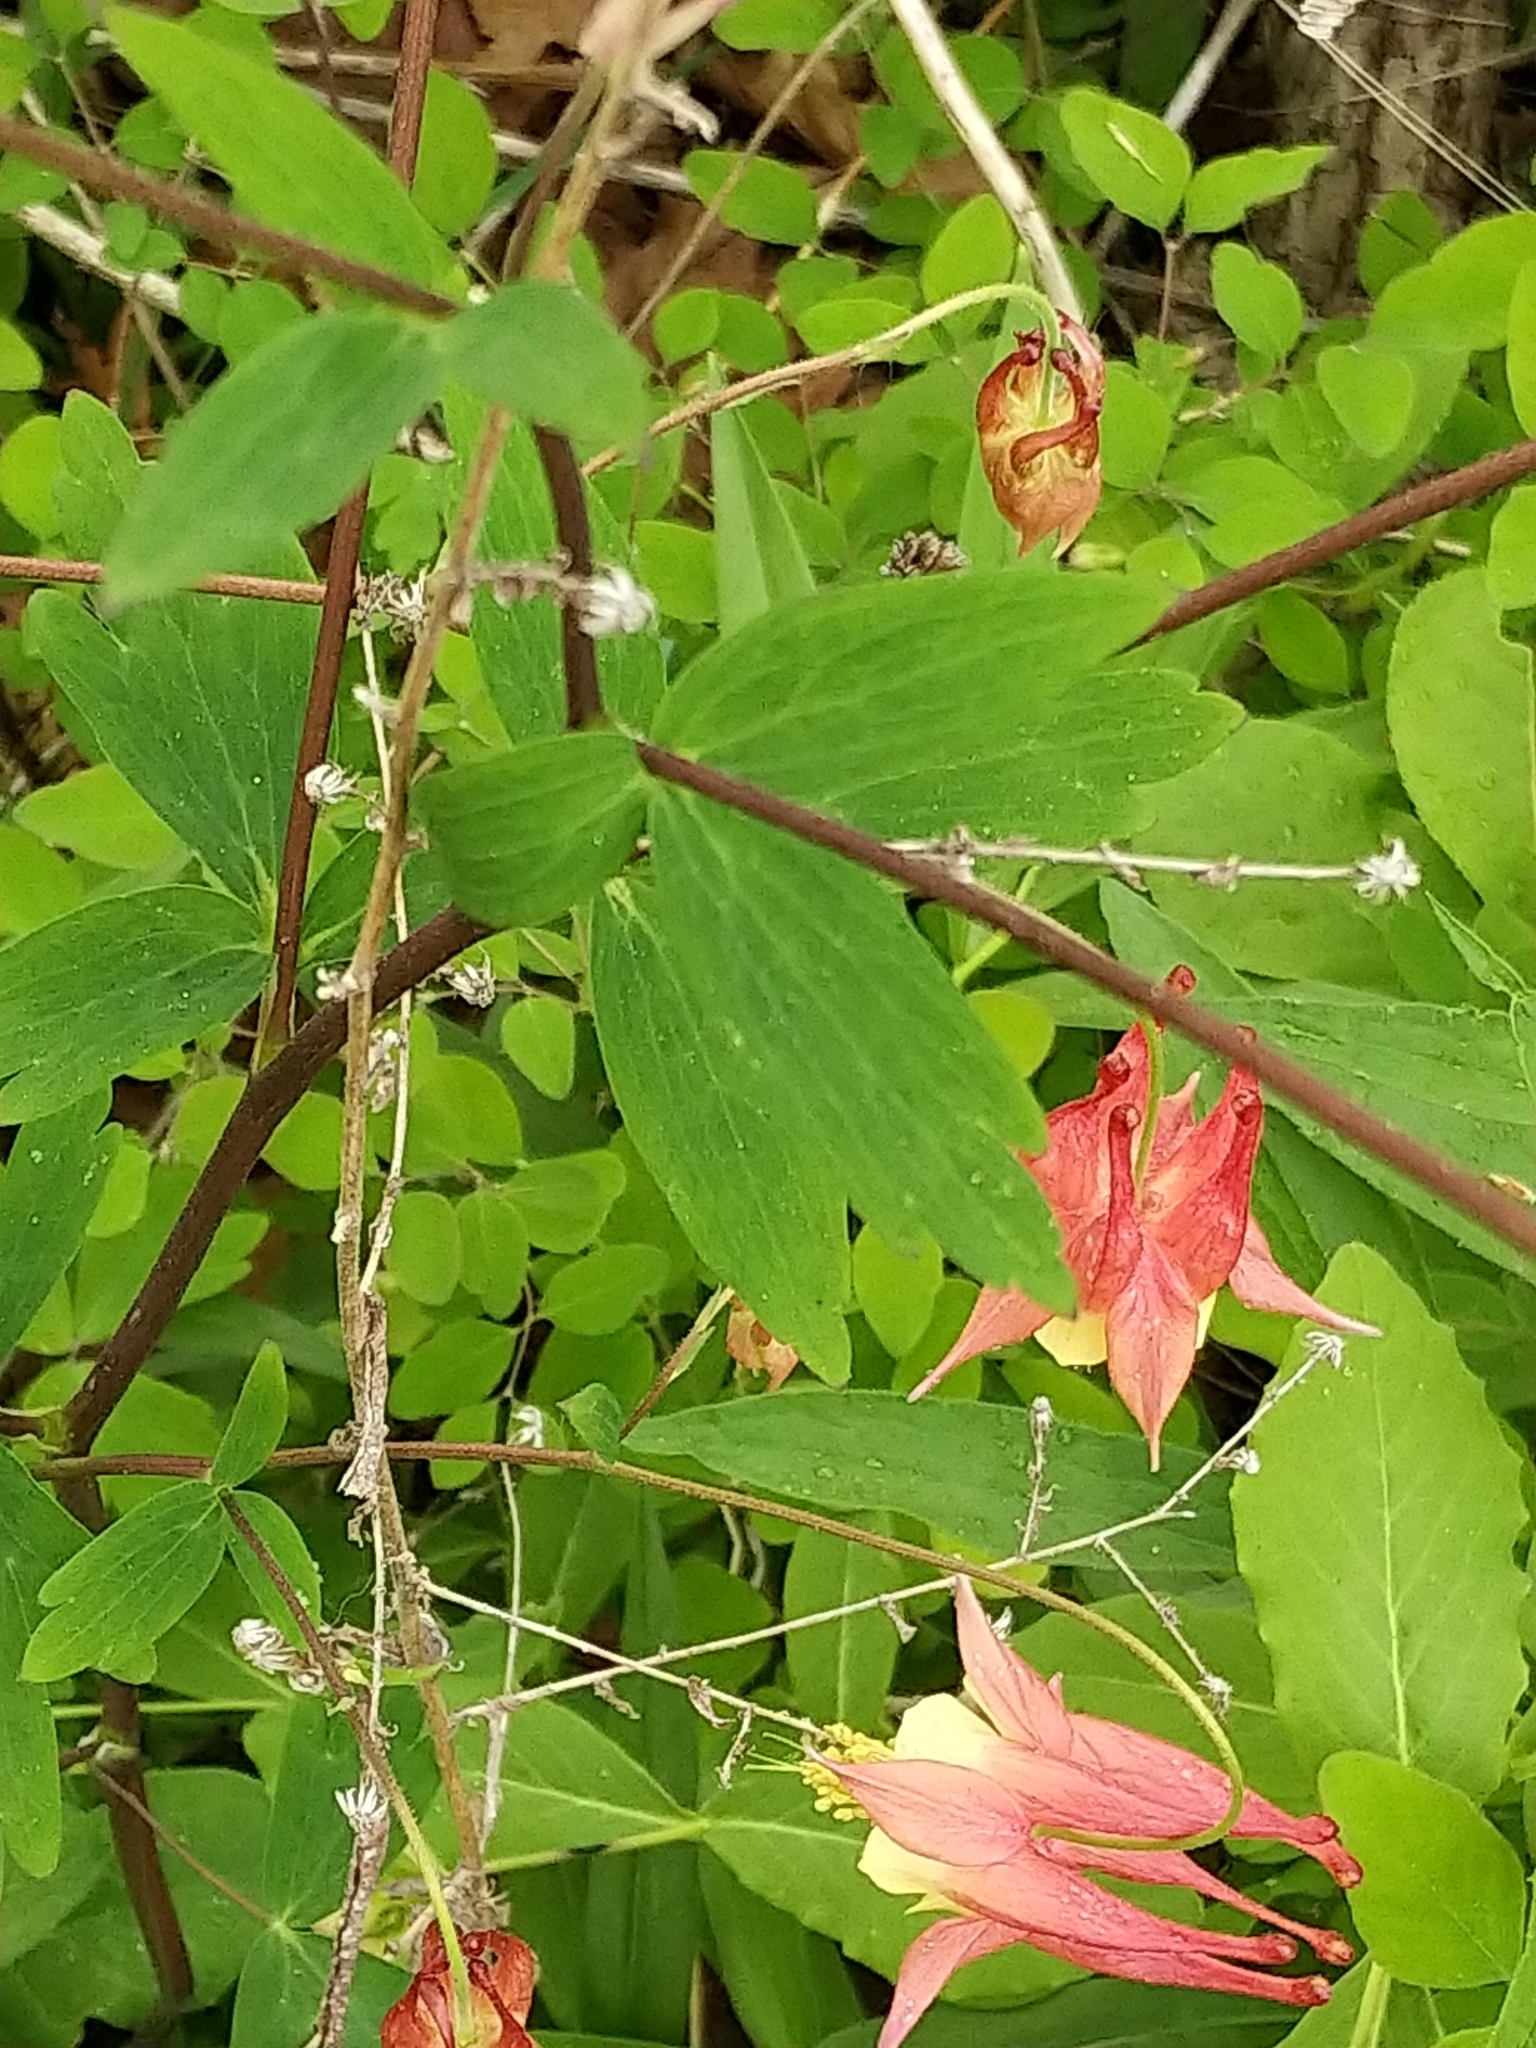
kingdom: Plantae
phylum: Tracheophyta
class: Magnoliopsida
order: Ranunculales
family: Ranunculaceae
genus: Aquilegia
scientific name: Aquilegia canadensis
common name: American columbine
